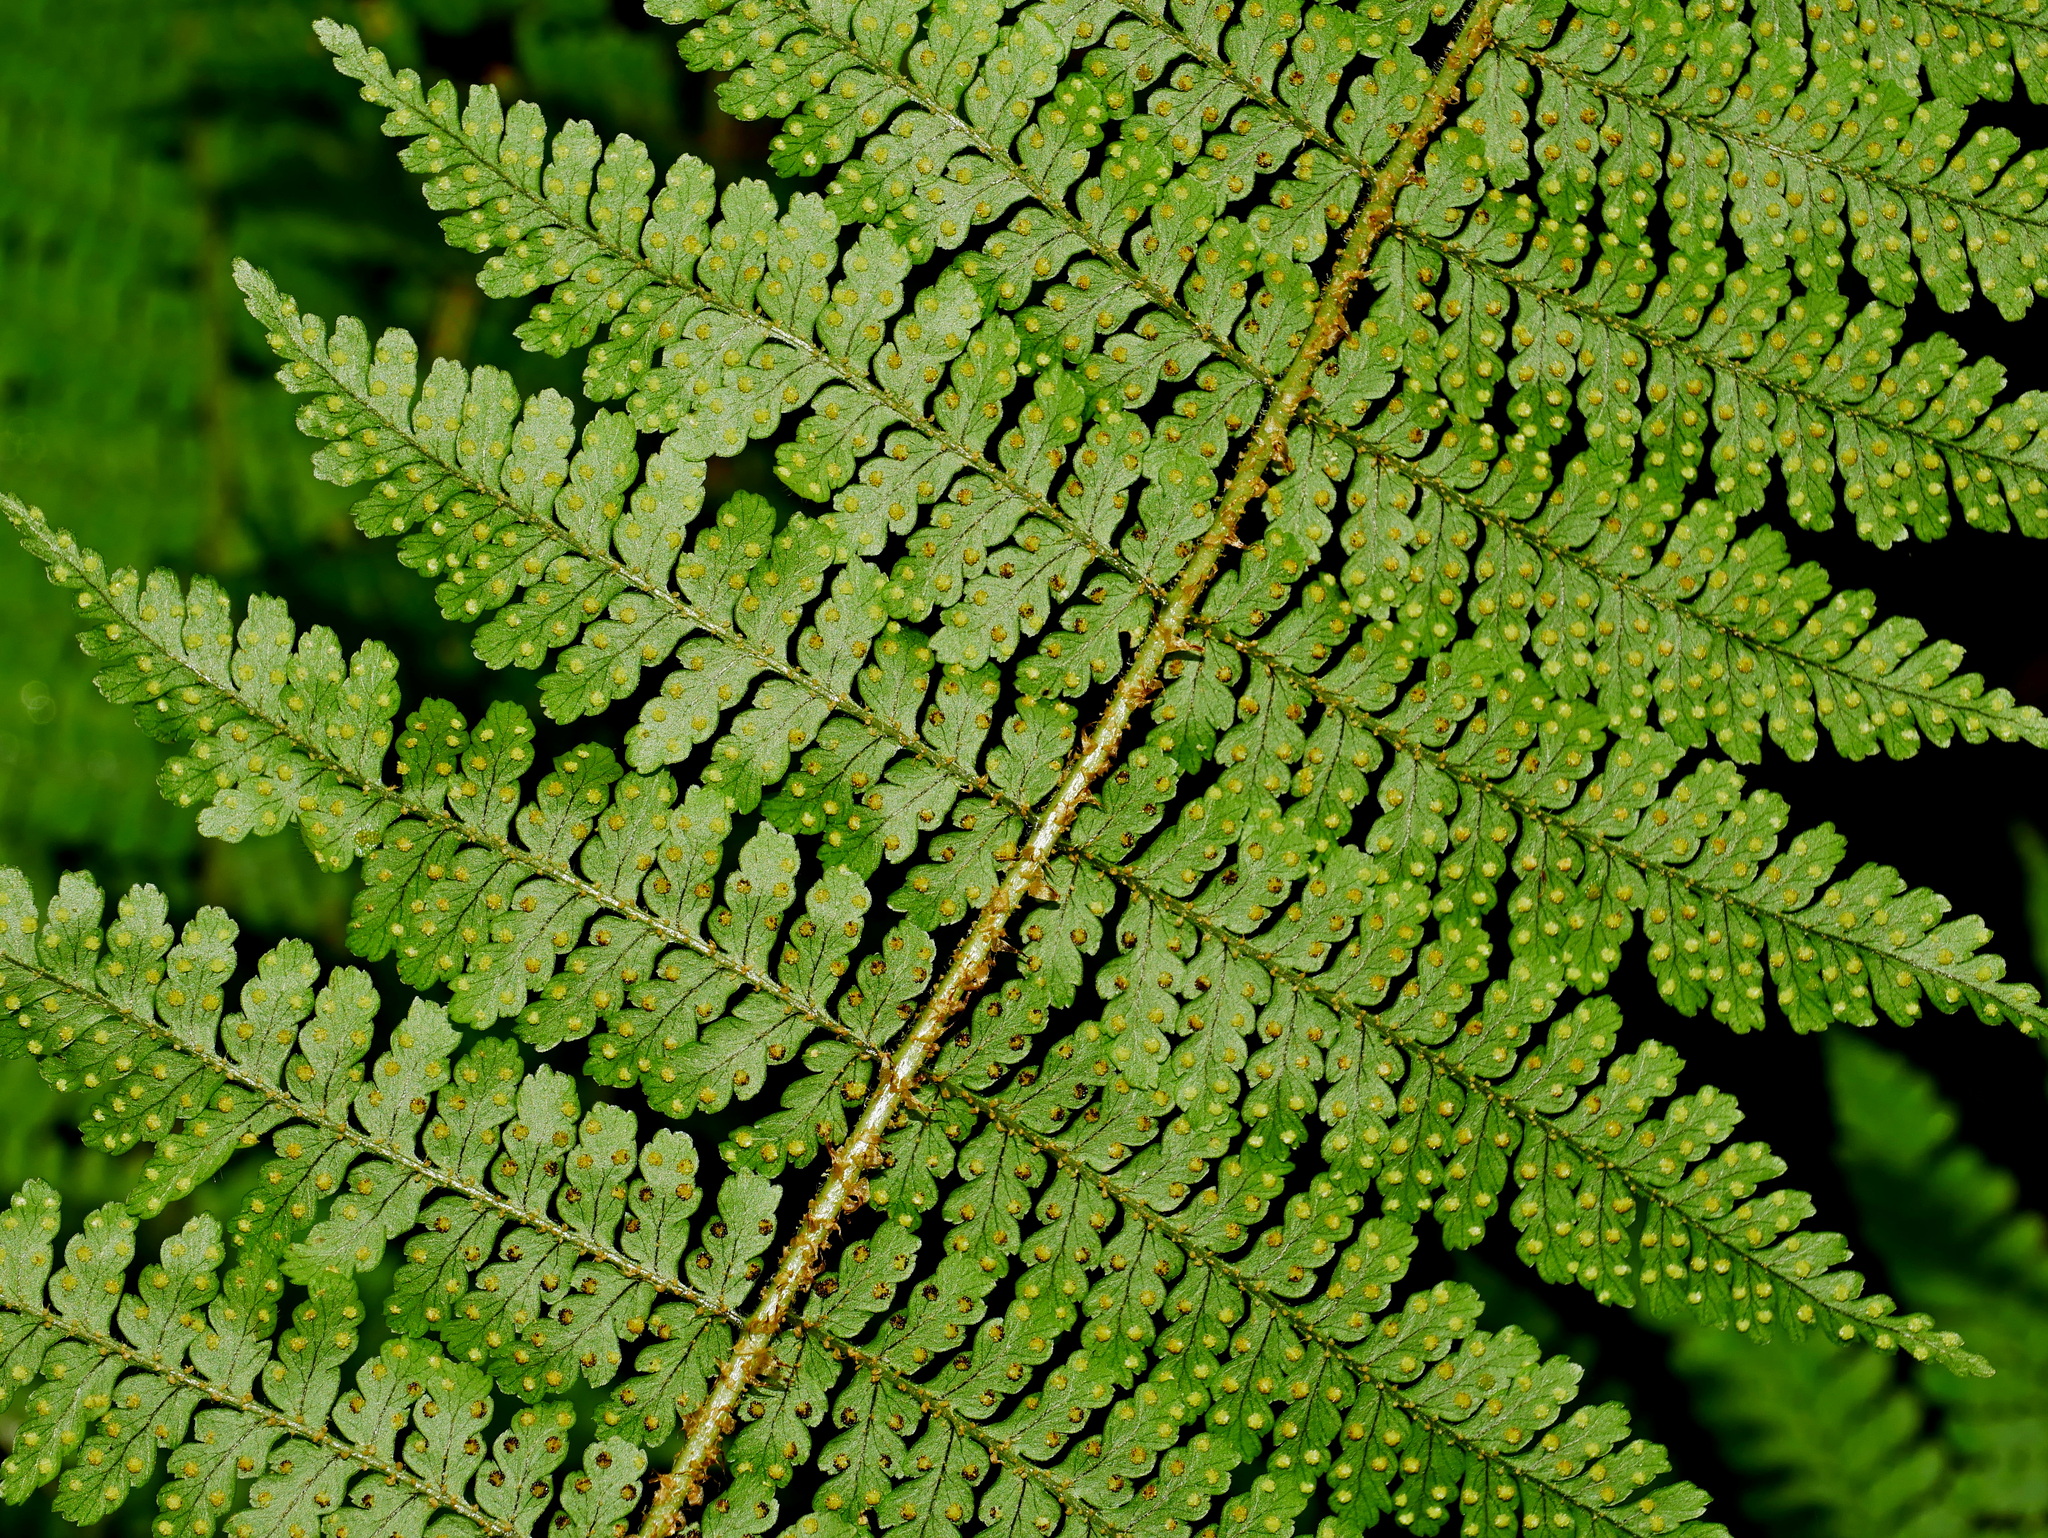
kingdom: Plantae
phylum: Tracheophyta
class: Polypodiopsida
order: Polypodiales
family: Dryopteridaceae
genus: Dryopteris
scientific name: Dryopteris kawakamii
